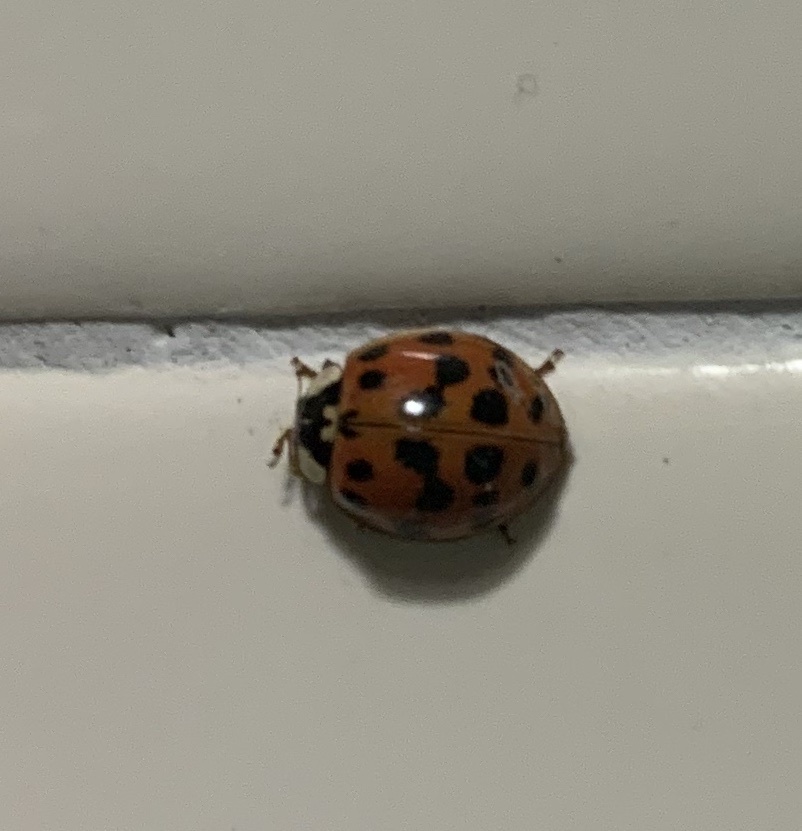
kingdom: Animalia
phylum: Arthropoda
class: Insecta
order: Coleoptera
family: Coccinellidae
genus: Harmonia
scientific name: Harmonia axyridis
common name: Harlequin ladybird
